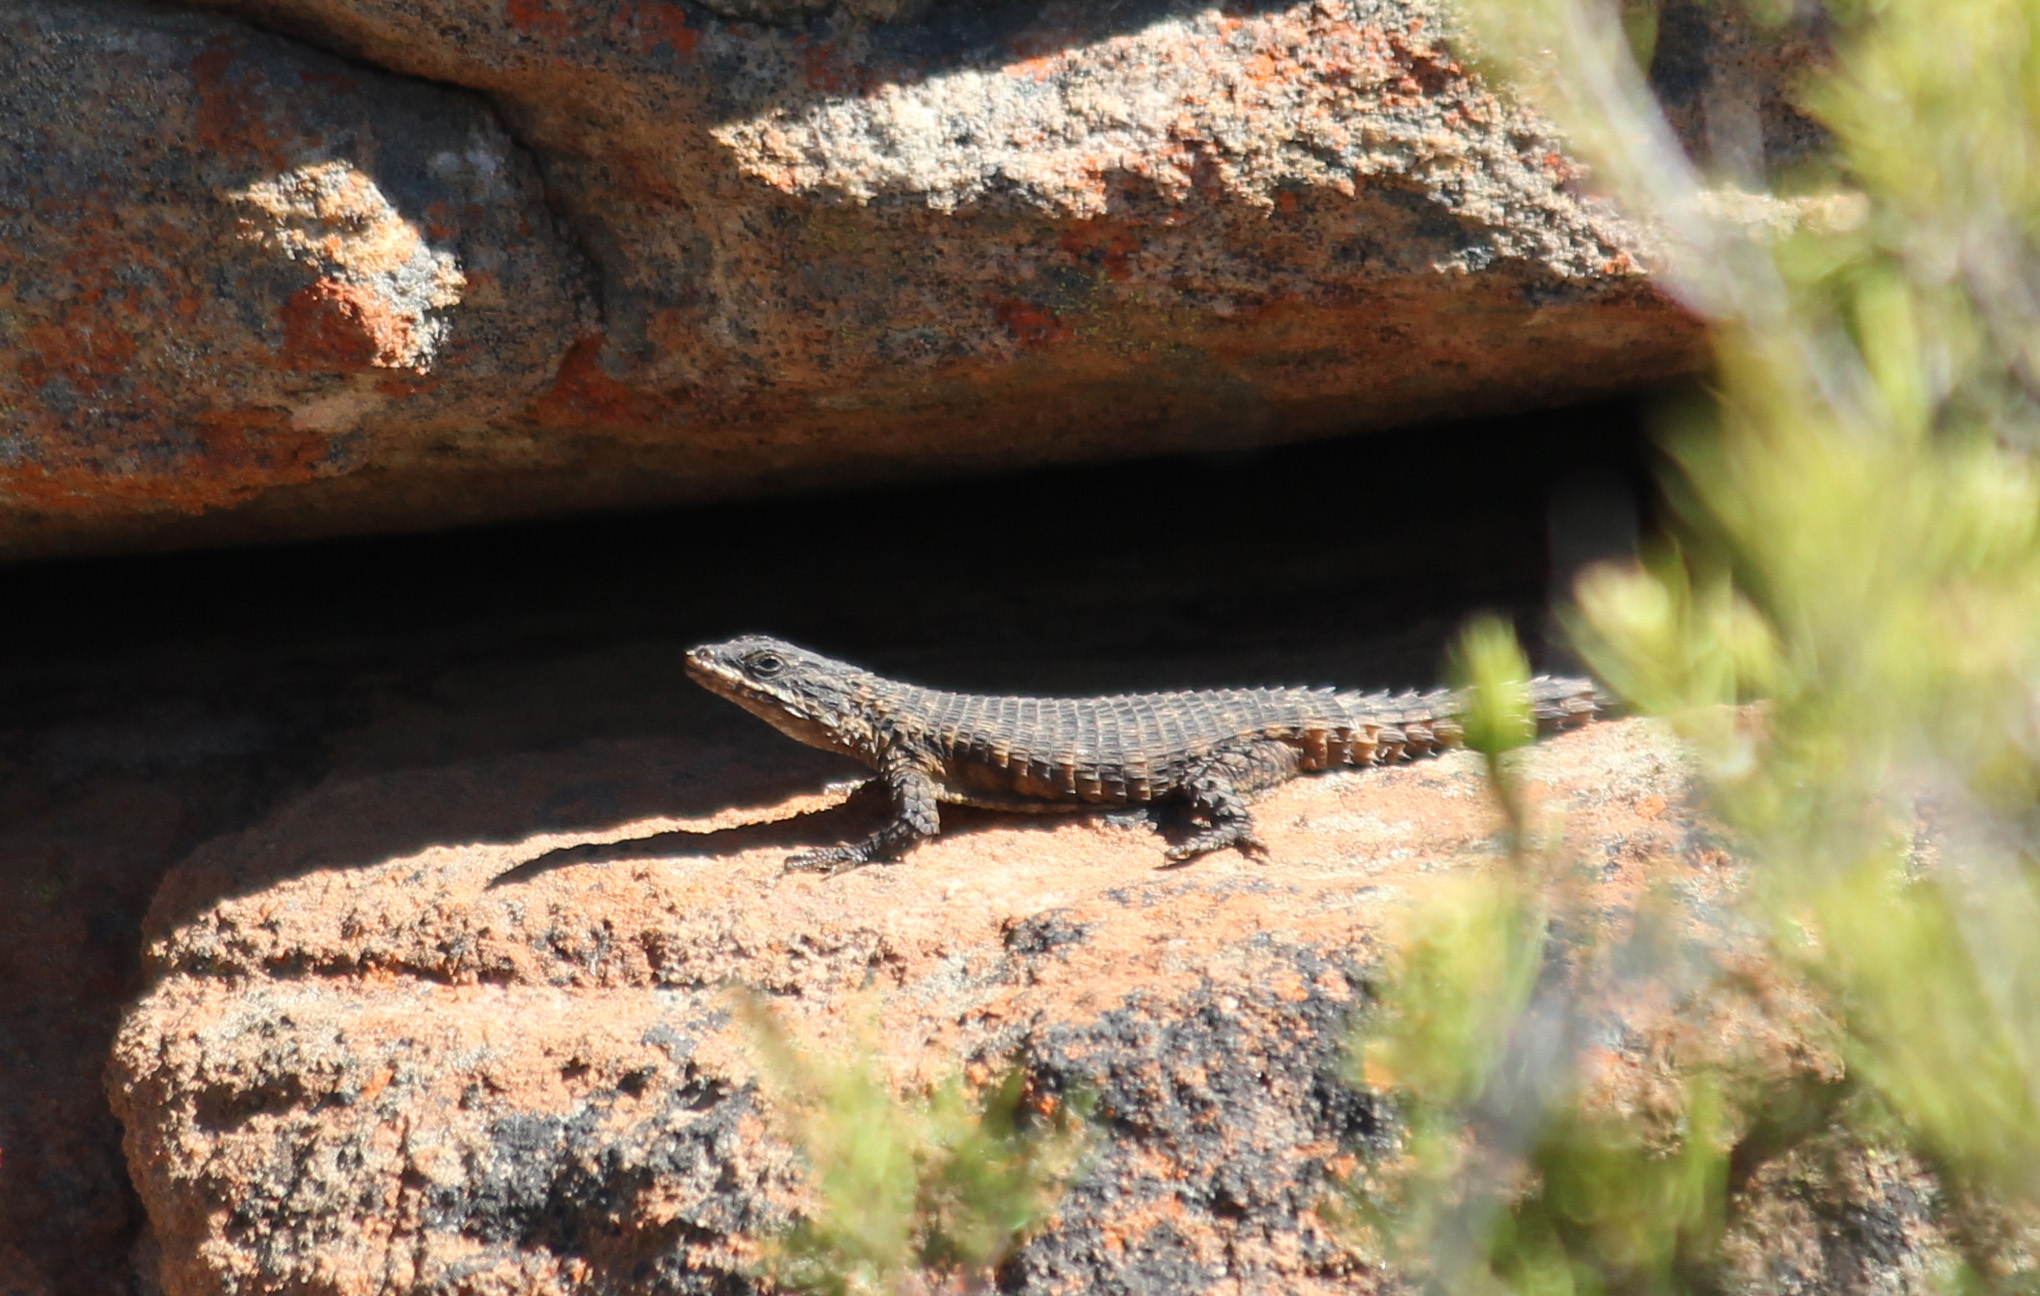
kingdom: Animalia
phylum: Chordata
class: Squamata
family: Cordylidae
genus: Cordylus
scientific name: Cordylus mclachlani
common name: Mclachlan's girdled lizard
